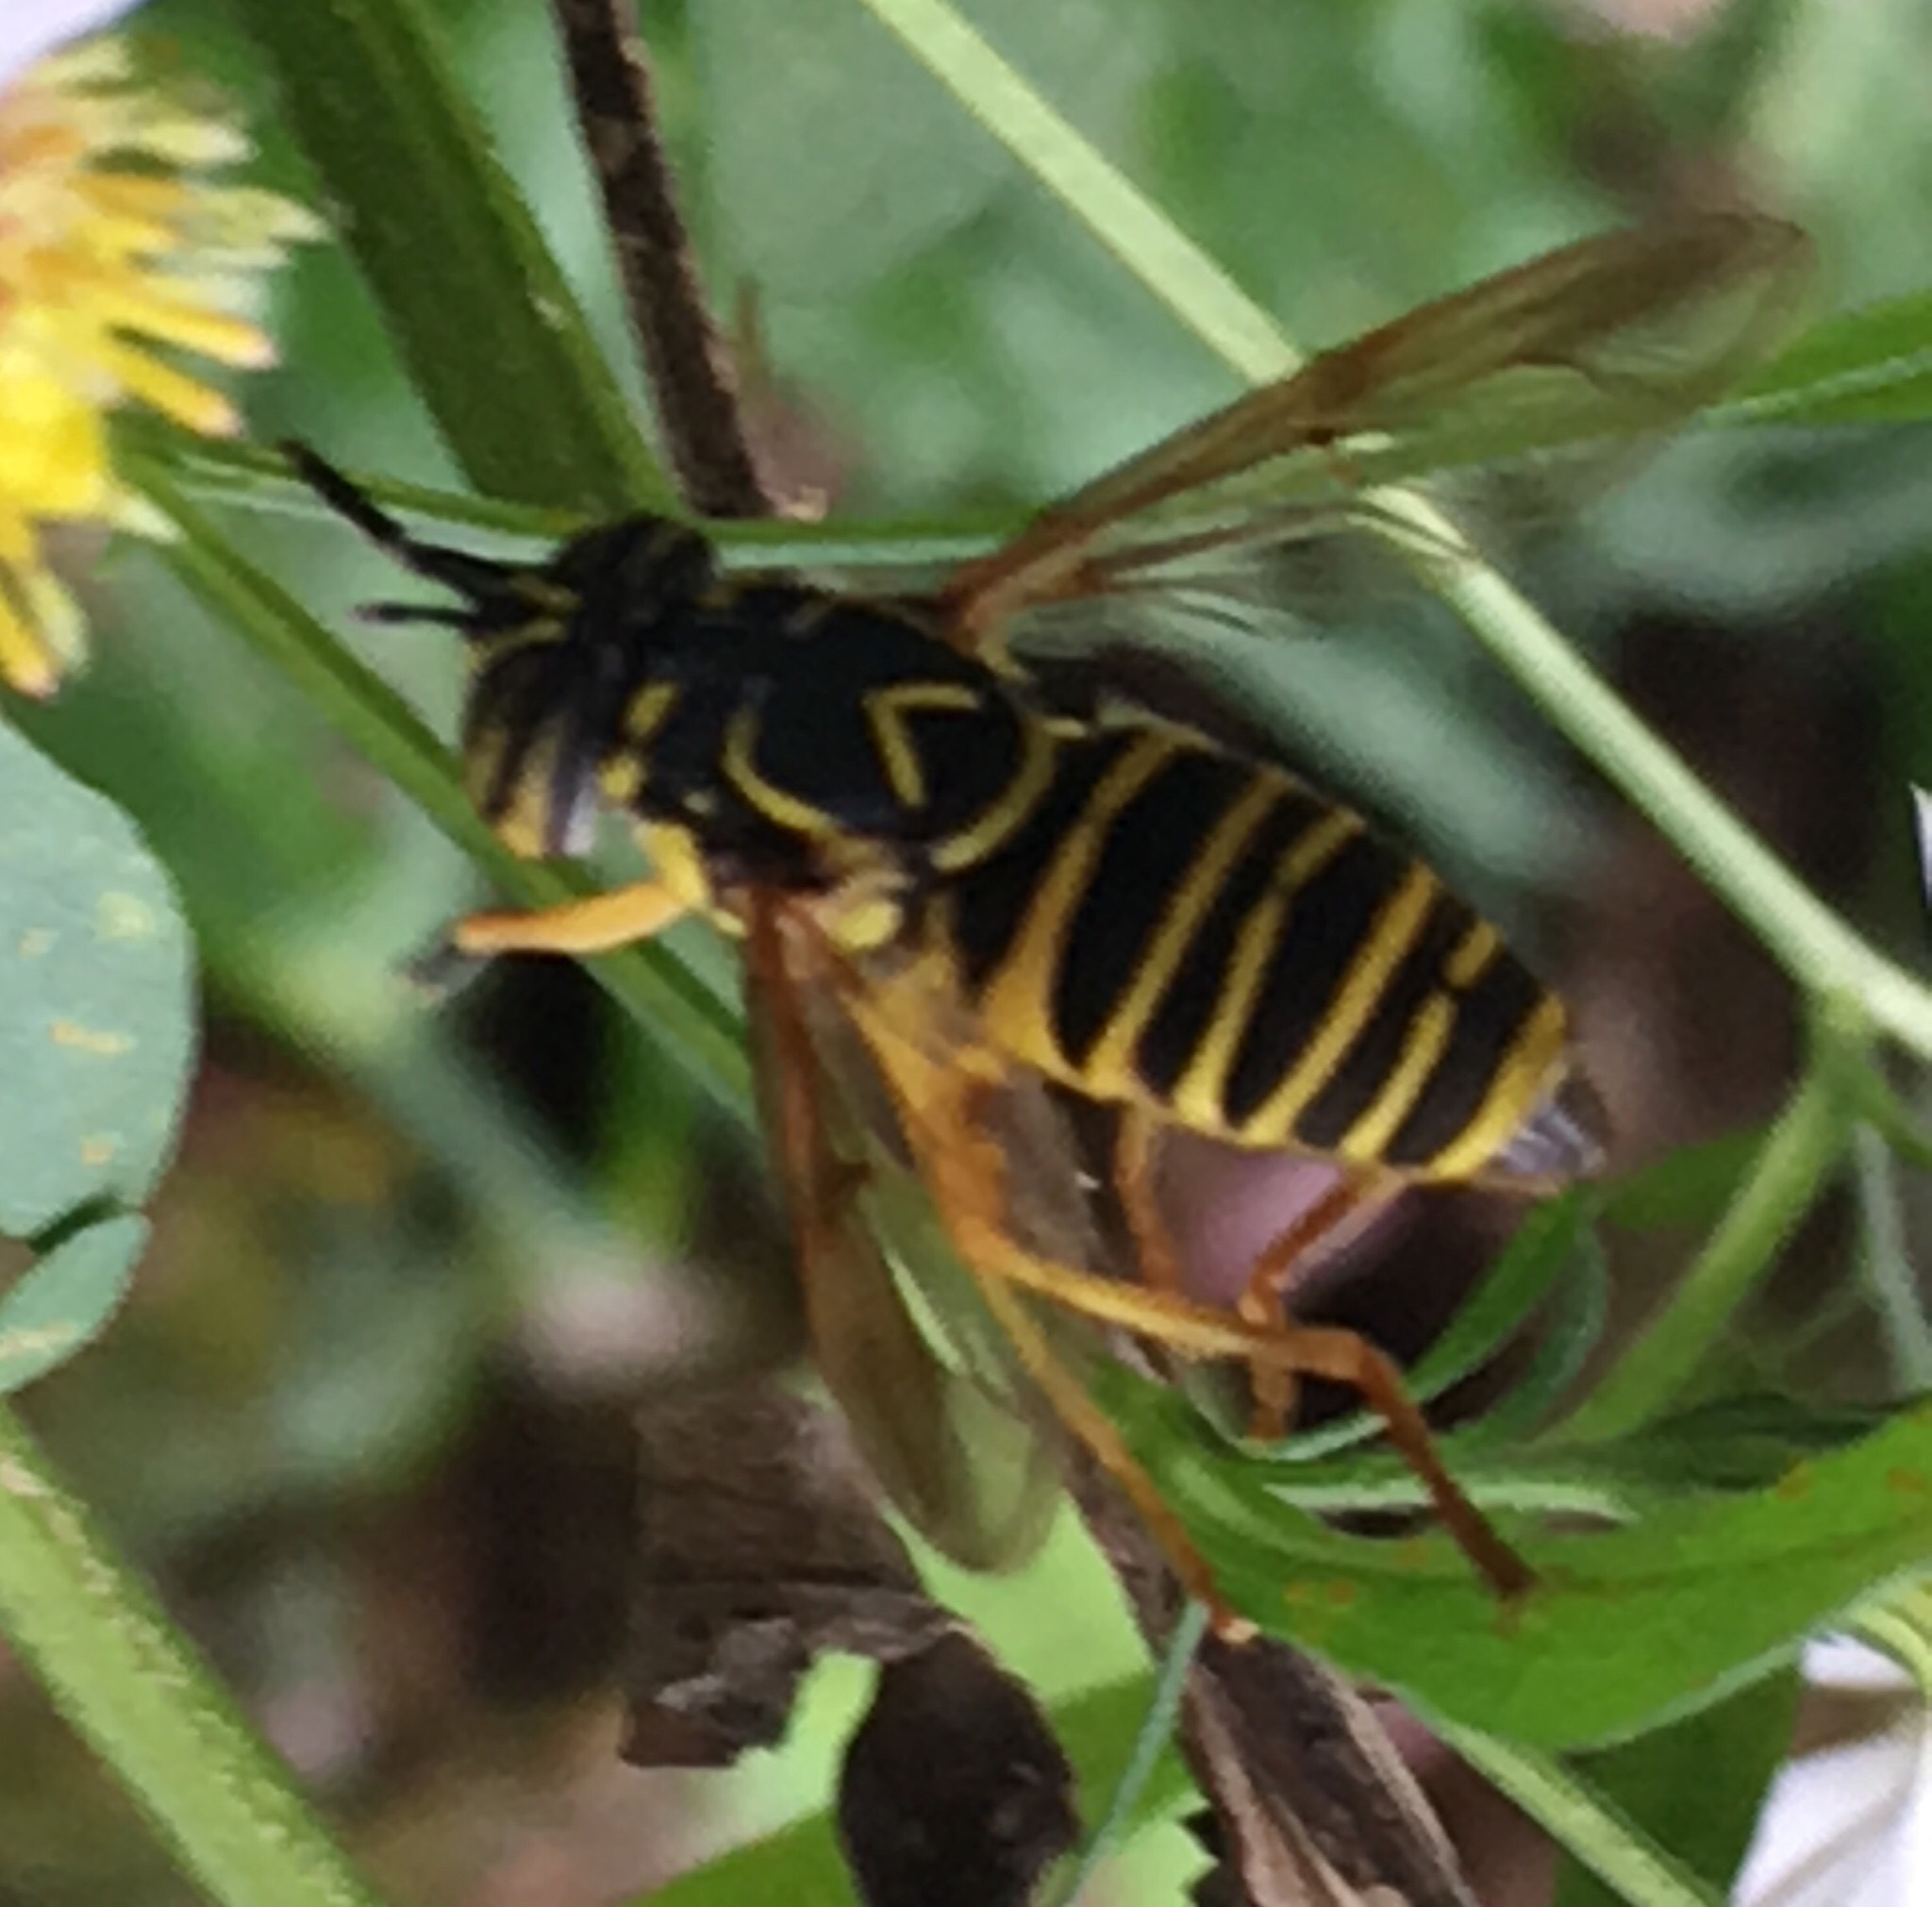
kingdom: Animalia
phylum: Arthropoda
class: Insecta
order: Diptera
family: Syrphidae
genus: Spilomyia
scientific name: Spilomyia longicornis
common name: Eastern hornet fly
